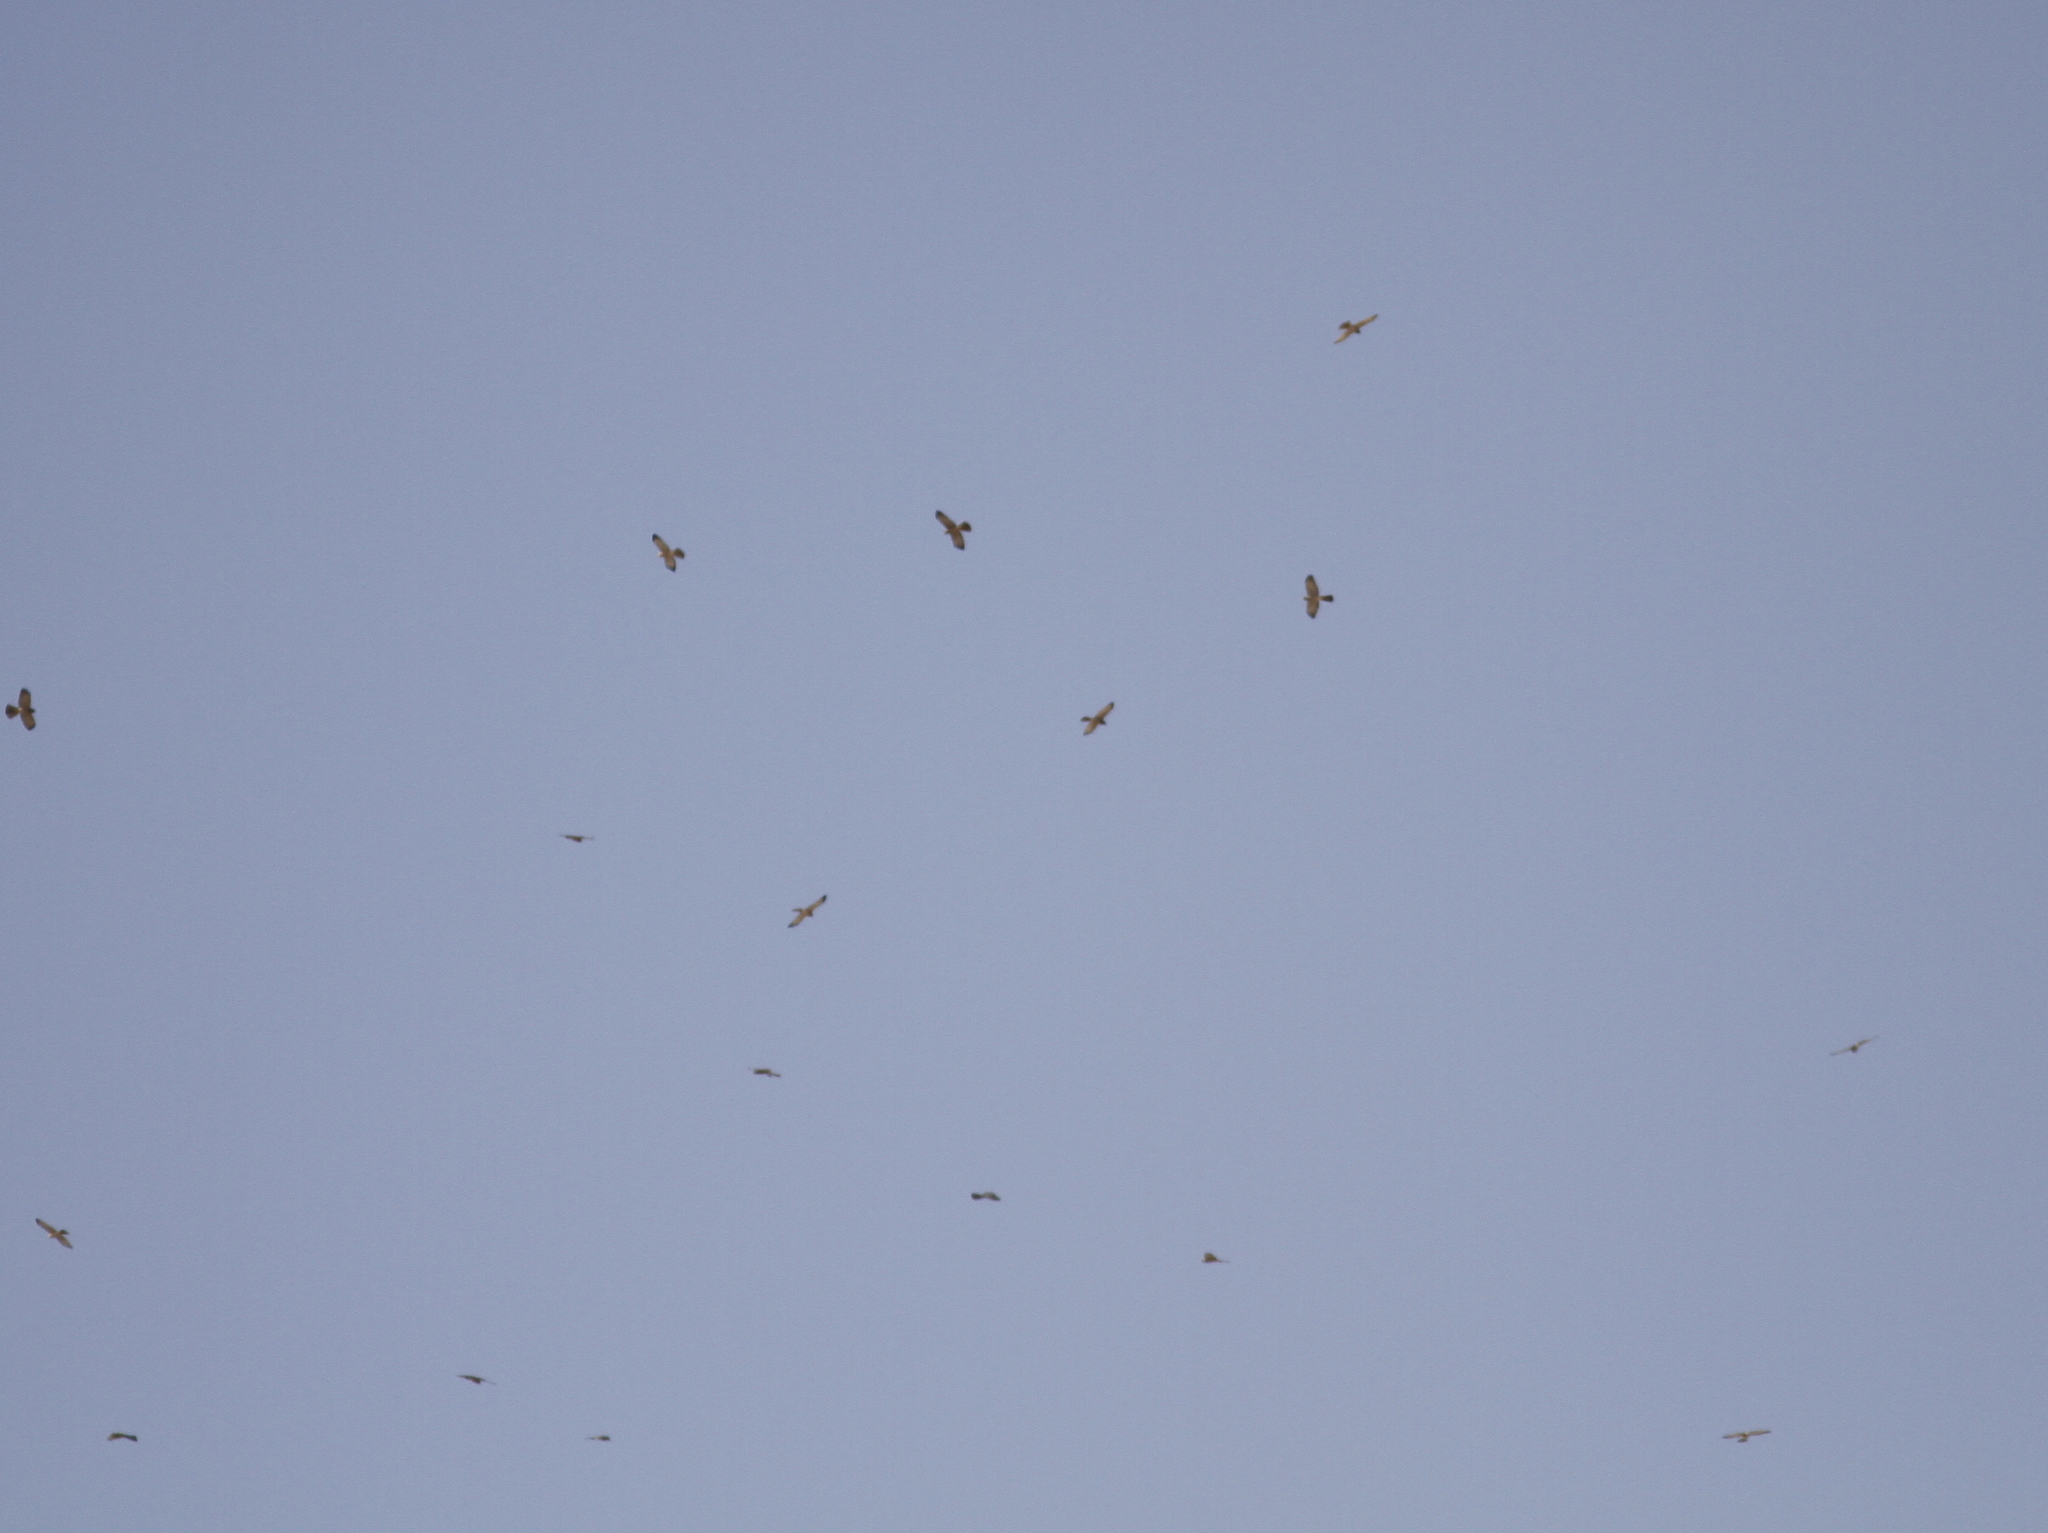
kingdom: Animalia
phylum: Chordata
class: Aves
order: Accipitriformes
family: Accipitridae
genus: Accipiter
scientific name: Accipiter brevipes
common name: Levant sparrowhawk
